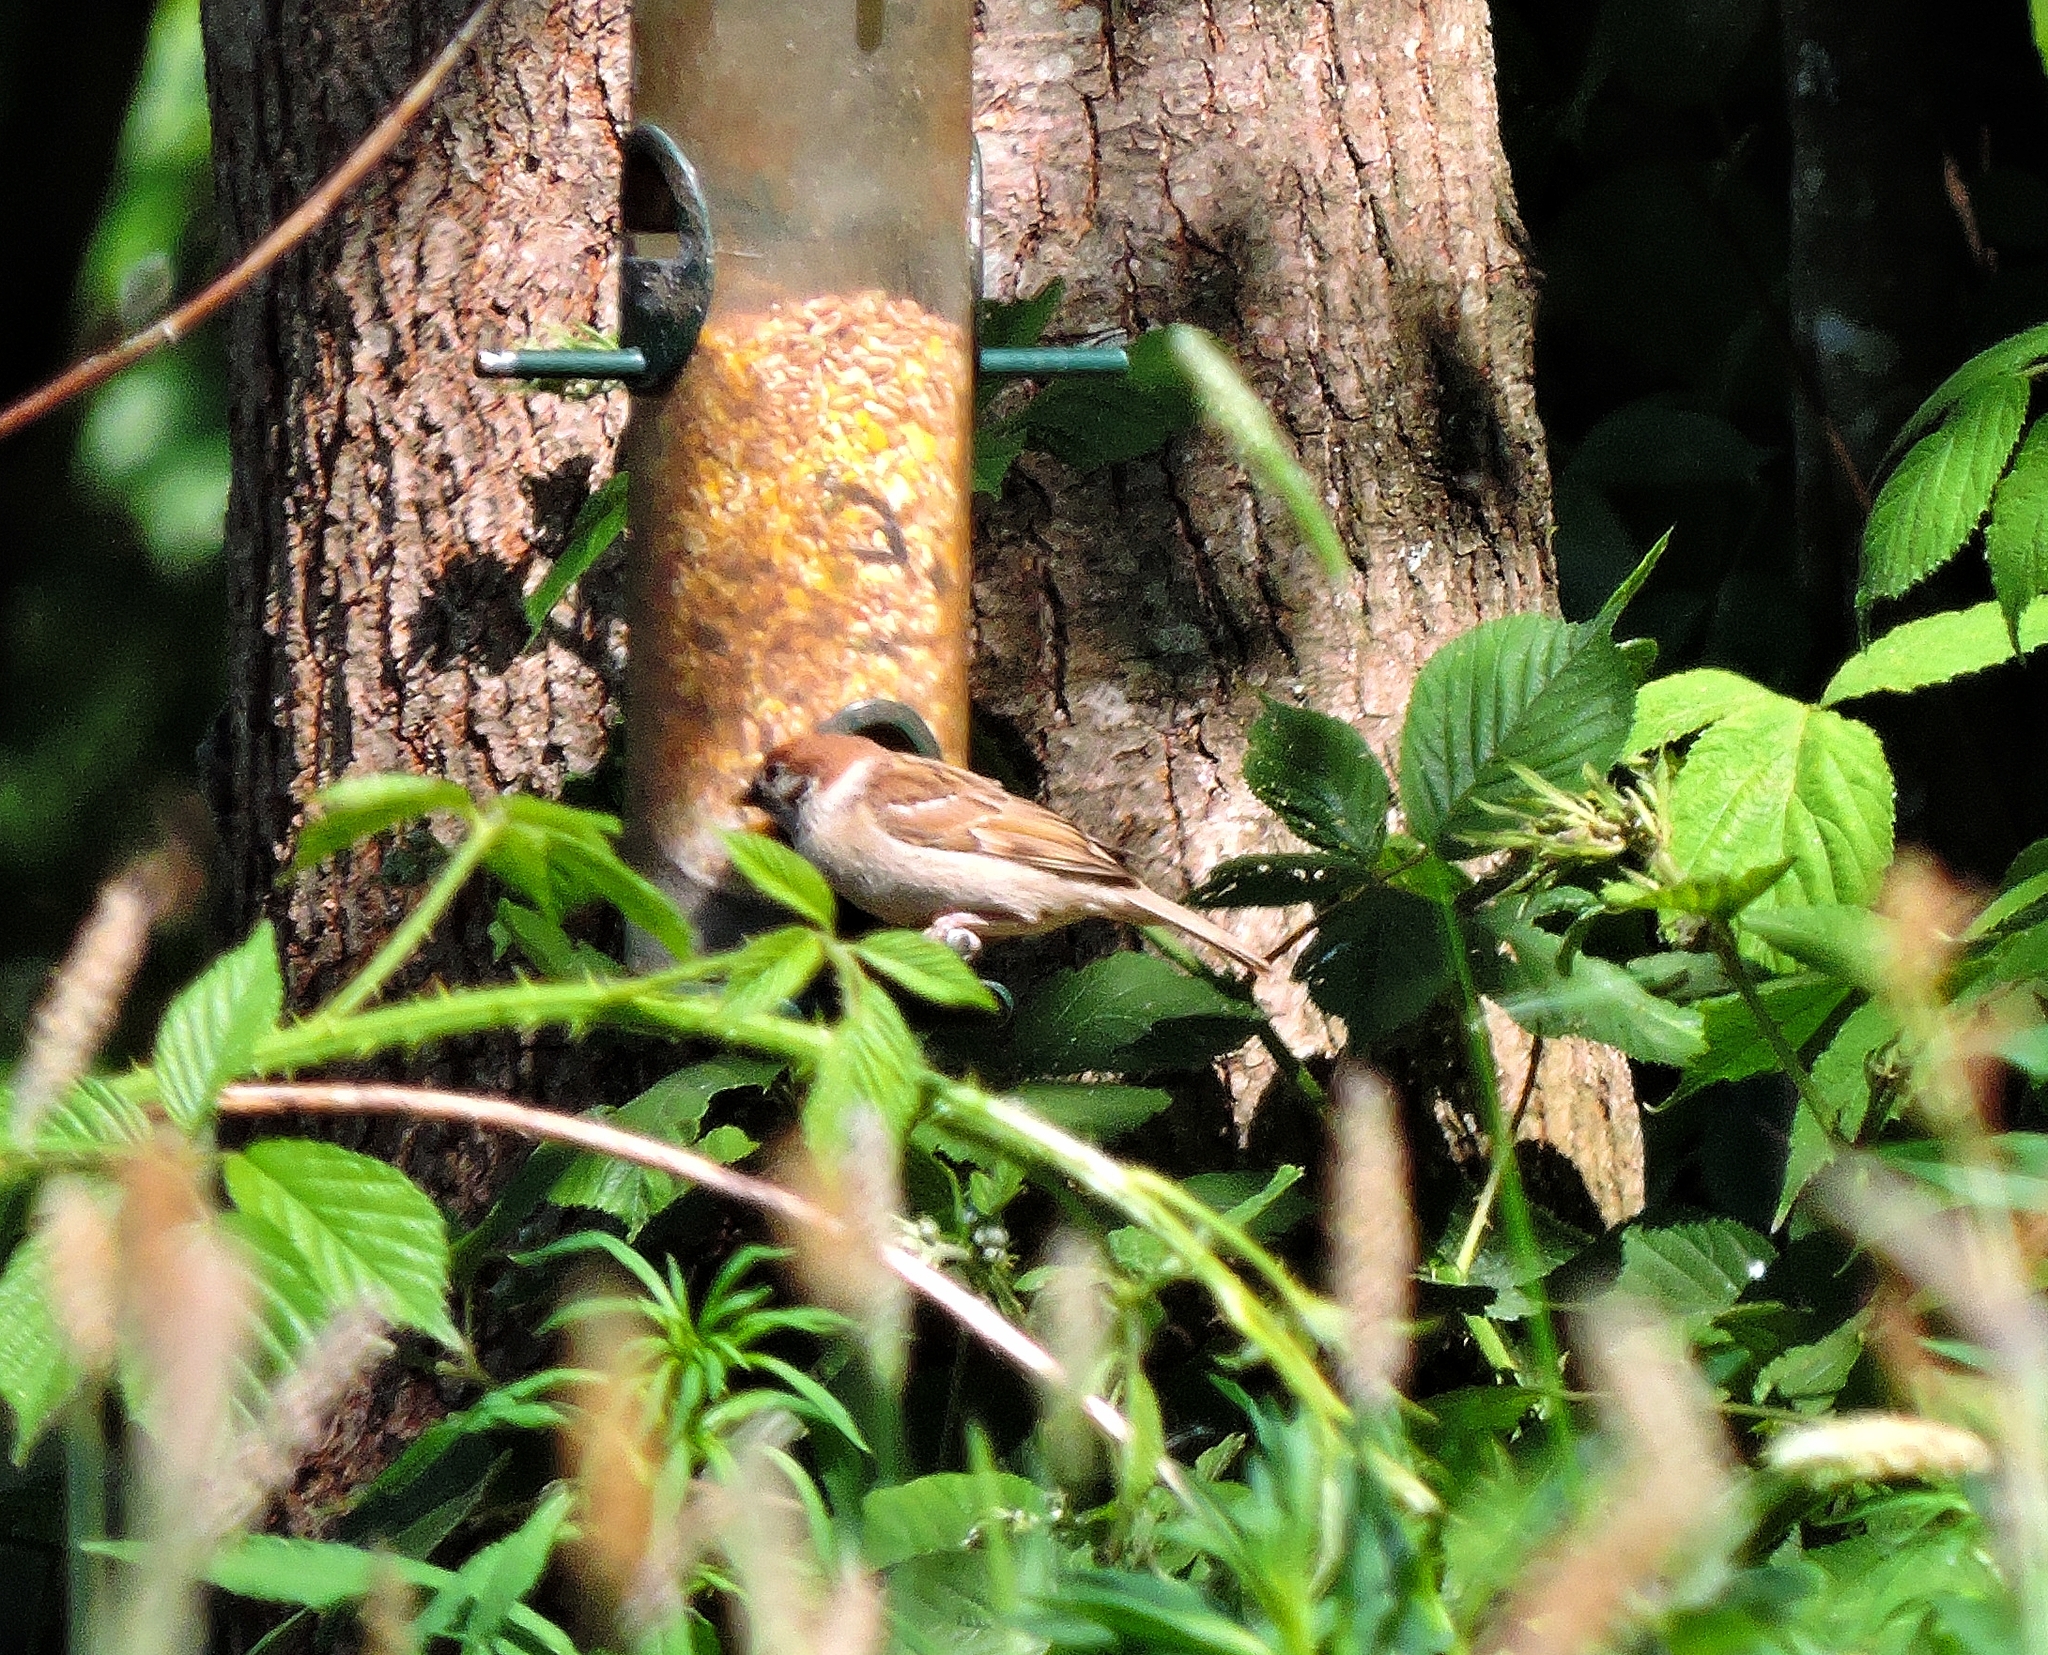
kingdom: Animalia
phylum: Chordata
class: Aves
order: Passeriformes
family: Passeridae
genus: Passer
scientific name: Passer montanus
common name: Eurasian tree sparrow
